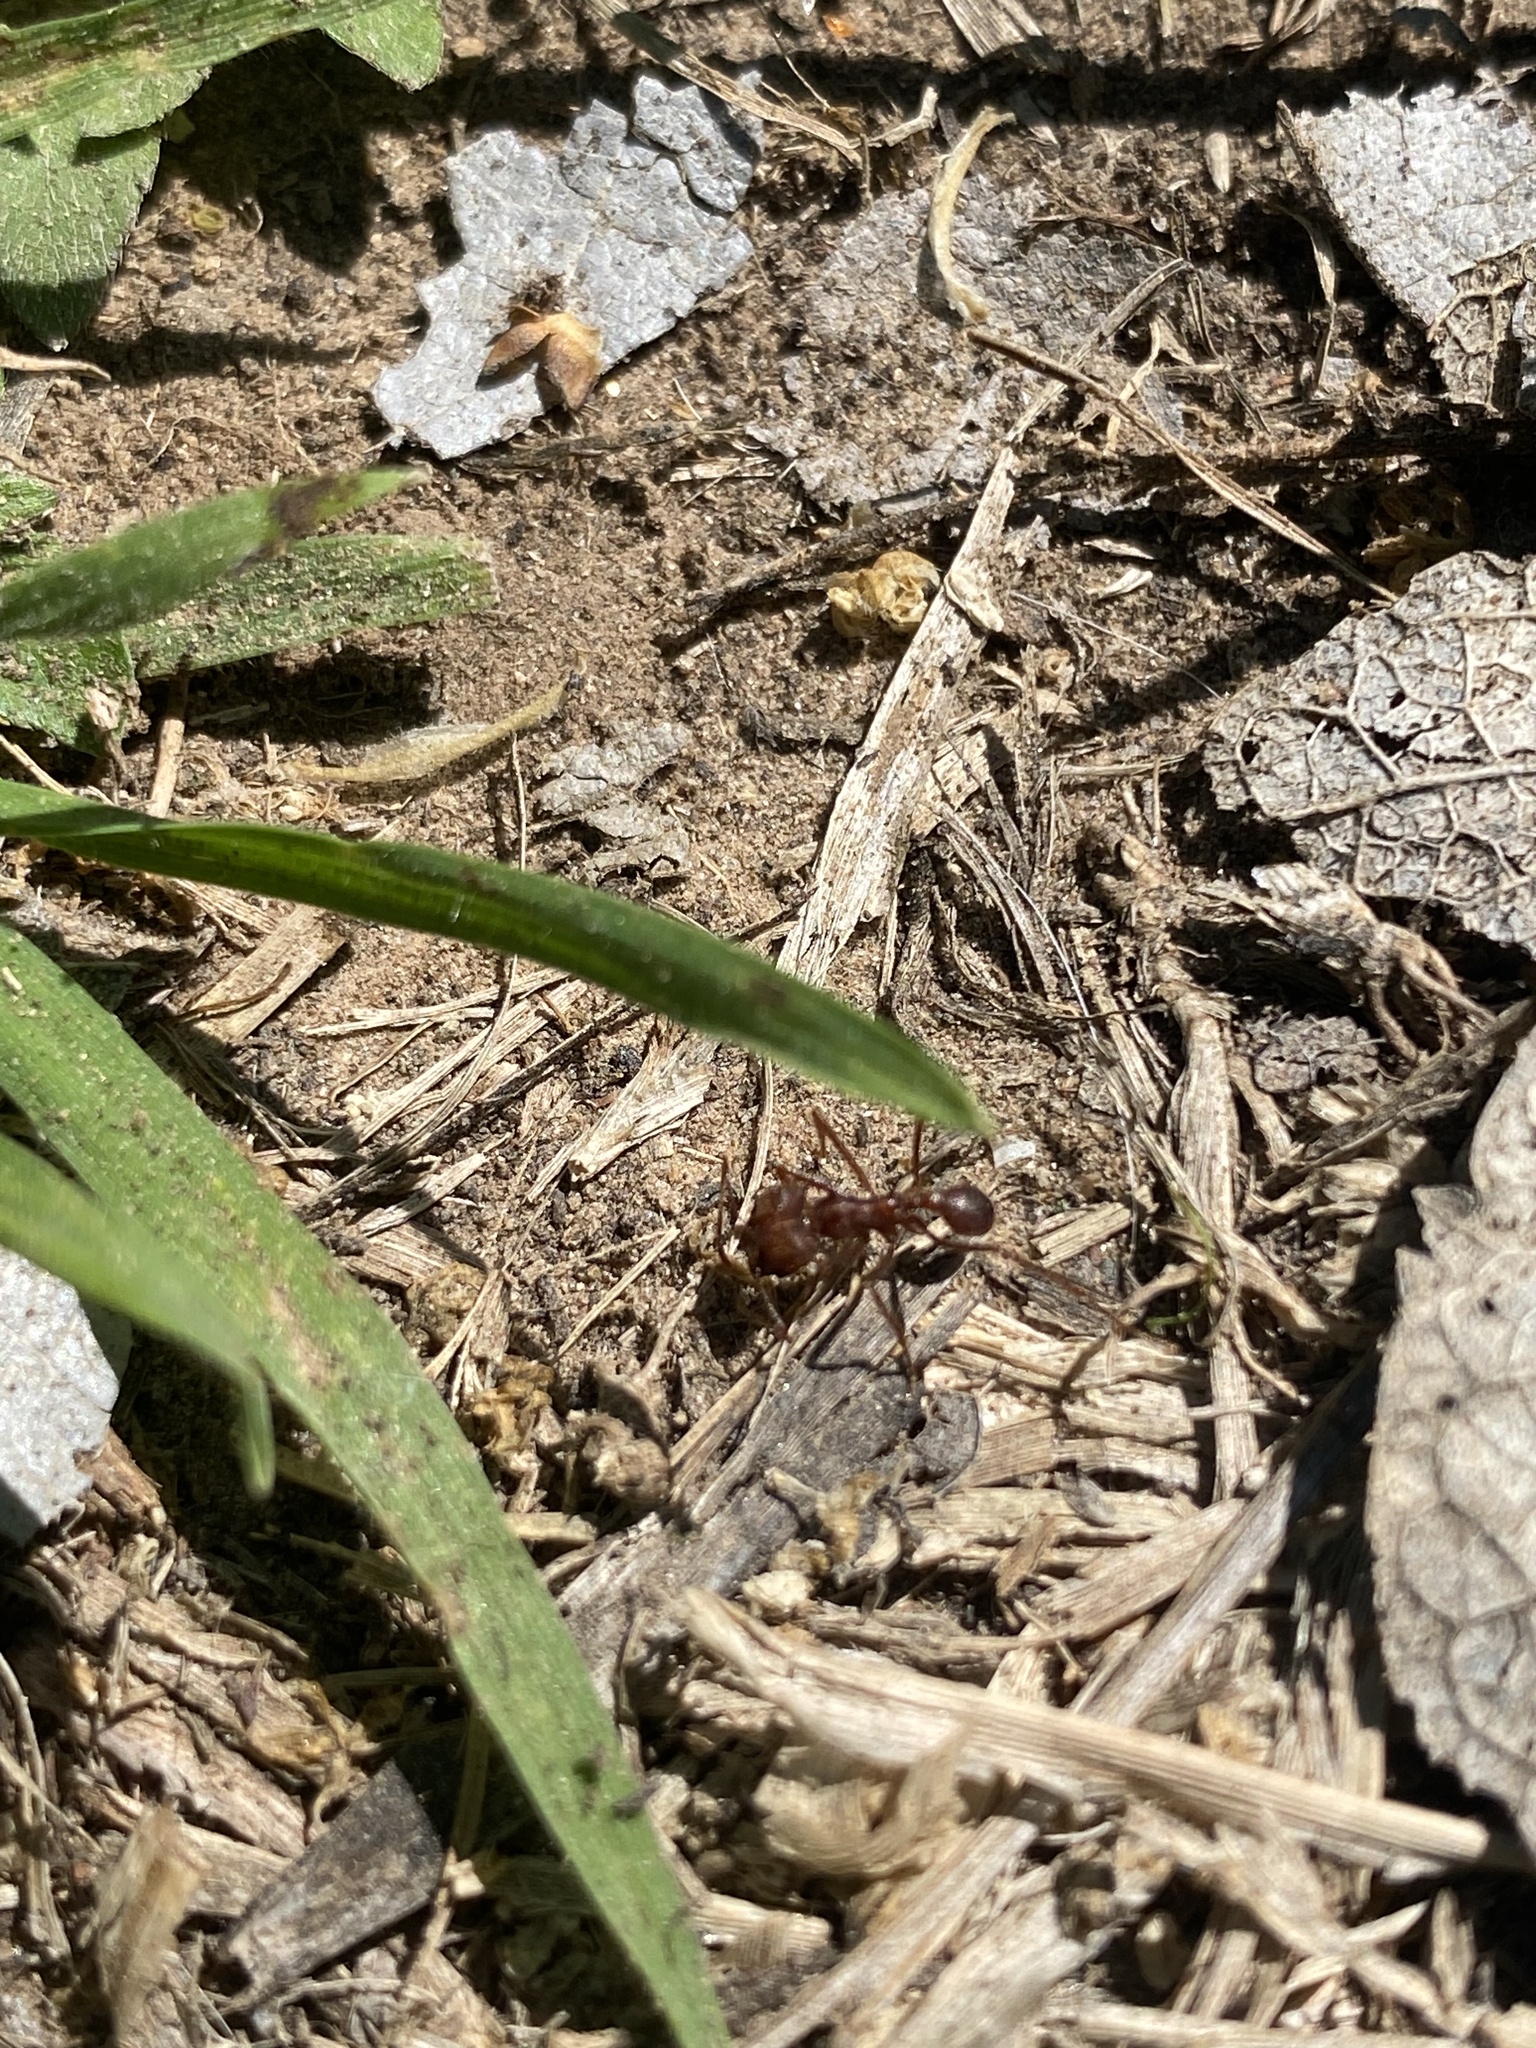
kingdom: Animalia
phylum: Arthropoda
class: Insecta
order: Hymenoptera
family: Formicidae
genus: Atta
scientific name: Atta texana
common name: Texas leafcutting ant
